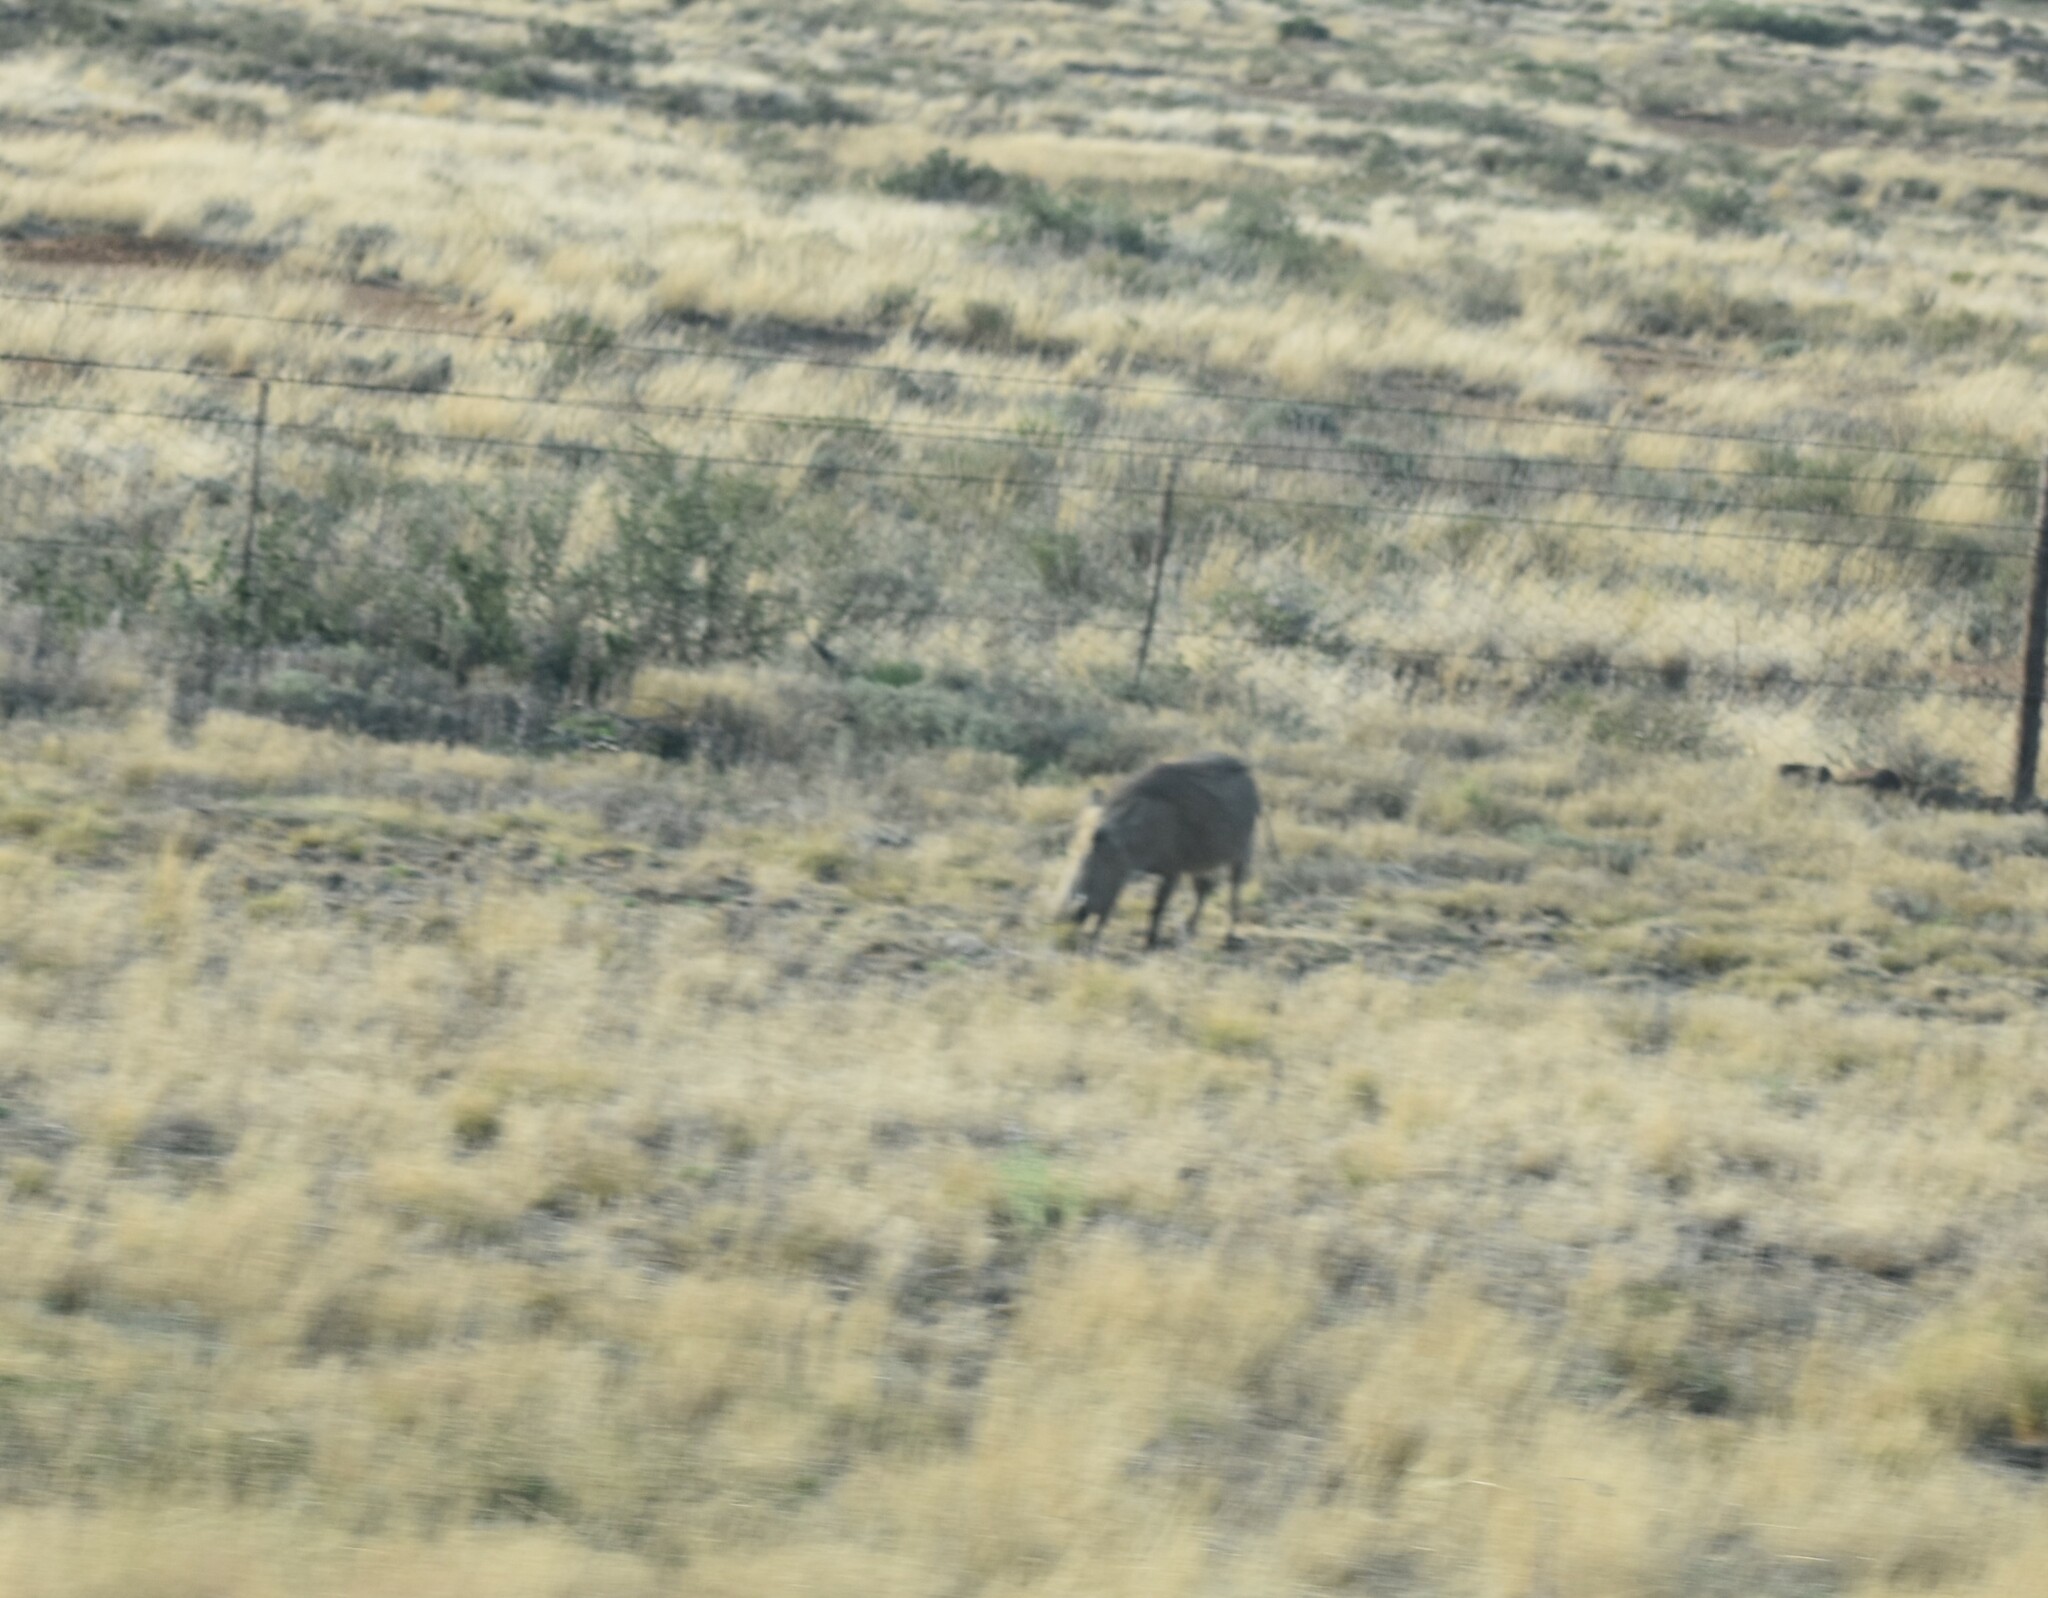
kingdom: Animalia
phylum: Chordata
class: Mammalia
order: Artiodactyla
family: Suidae
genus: Phacochoerus
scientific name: Phacochoerus africanus
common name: Common warthog
